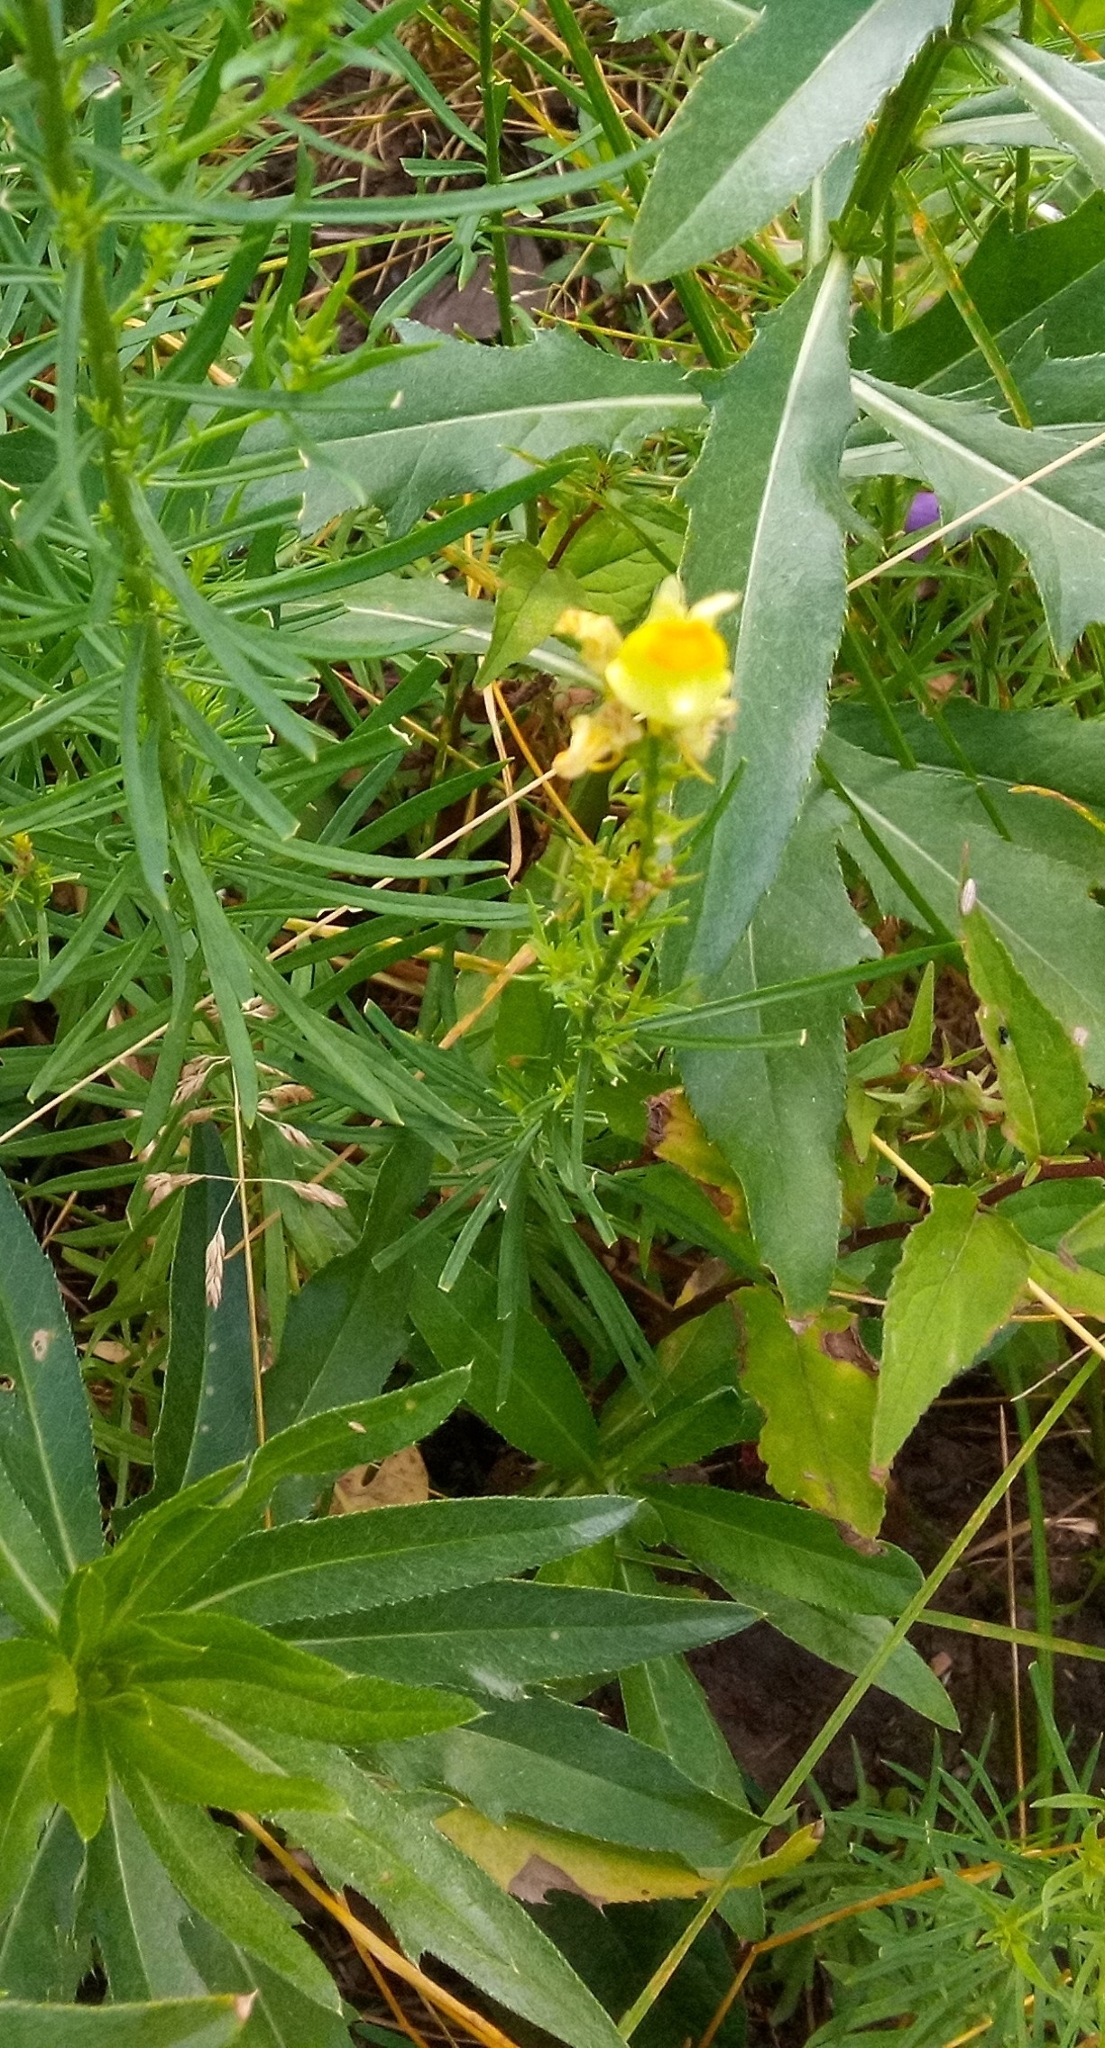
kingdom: Plantae
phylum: Tracheophyta
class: Magnoliopsida
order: Lamiales
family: Plantaginaceae
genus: Linaria
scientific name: Linaria vulgaris
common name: Butter and eggs
